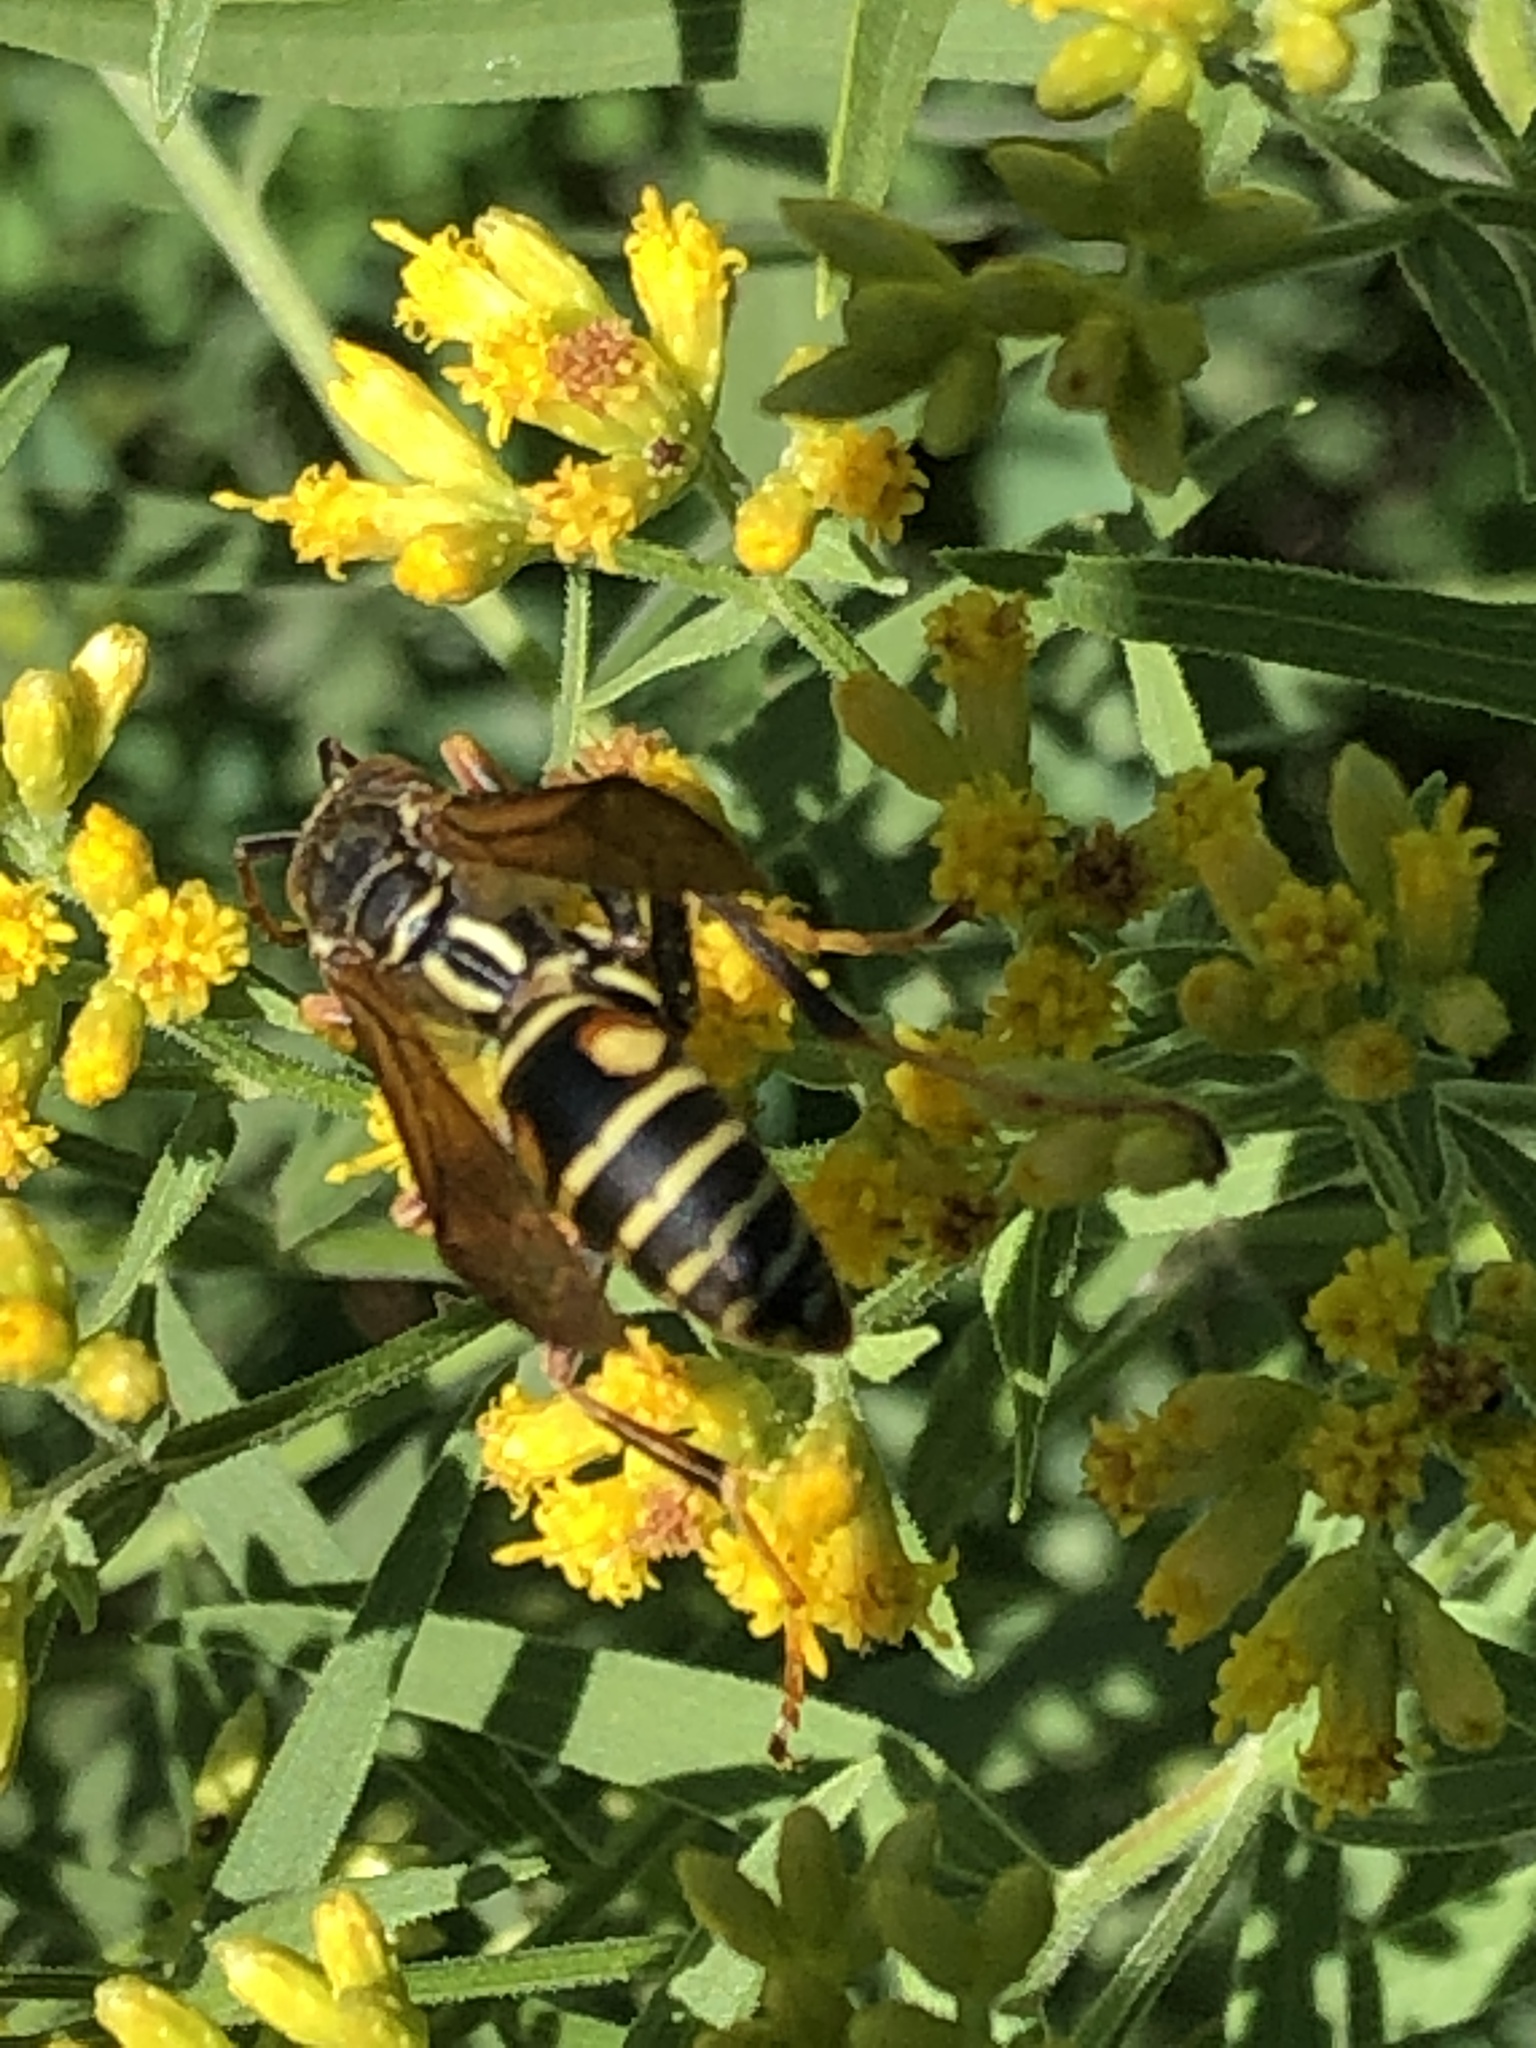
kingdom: Animalia
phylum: Arthropoda
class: Insecta
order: Hymenoptera
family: Eumenidae
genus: Polistes
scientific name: Polistes fuscatus
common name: Dark paper wasp
